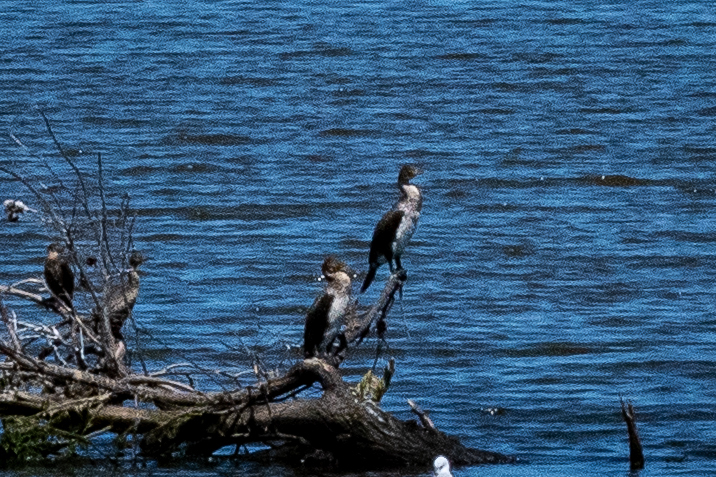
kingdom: Animalia
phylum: Chordata
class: Aves
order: Suliformes
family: Phalacrocoracidae
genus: Phalacrocorax
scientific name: Phalacrocorax carbo
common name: Great cormorant
